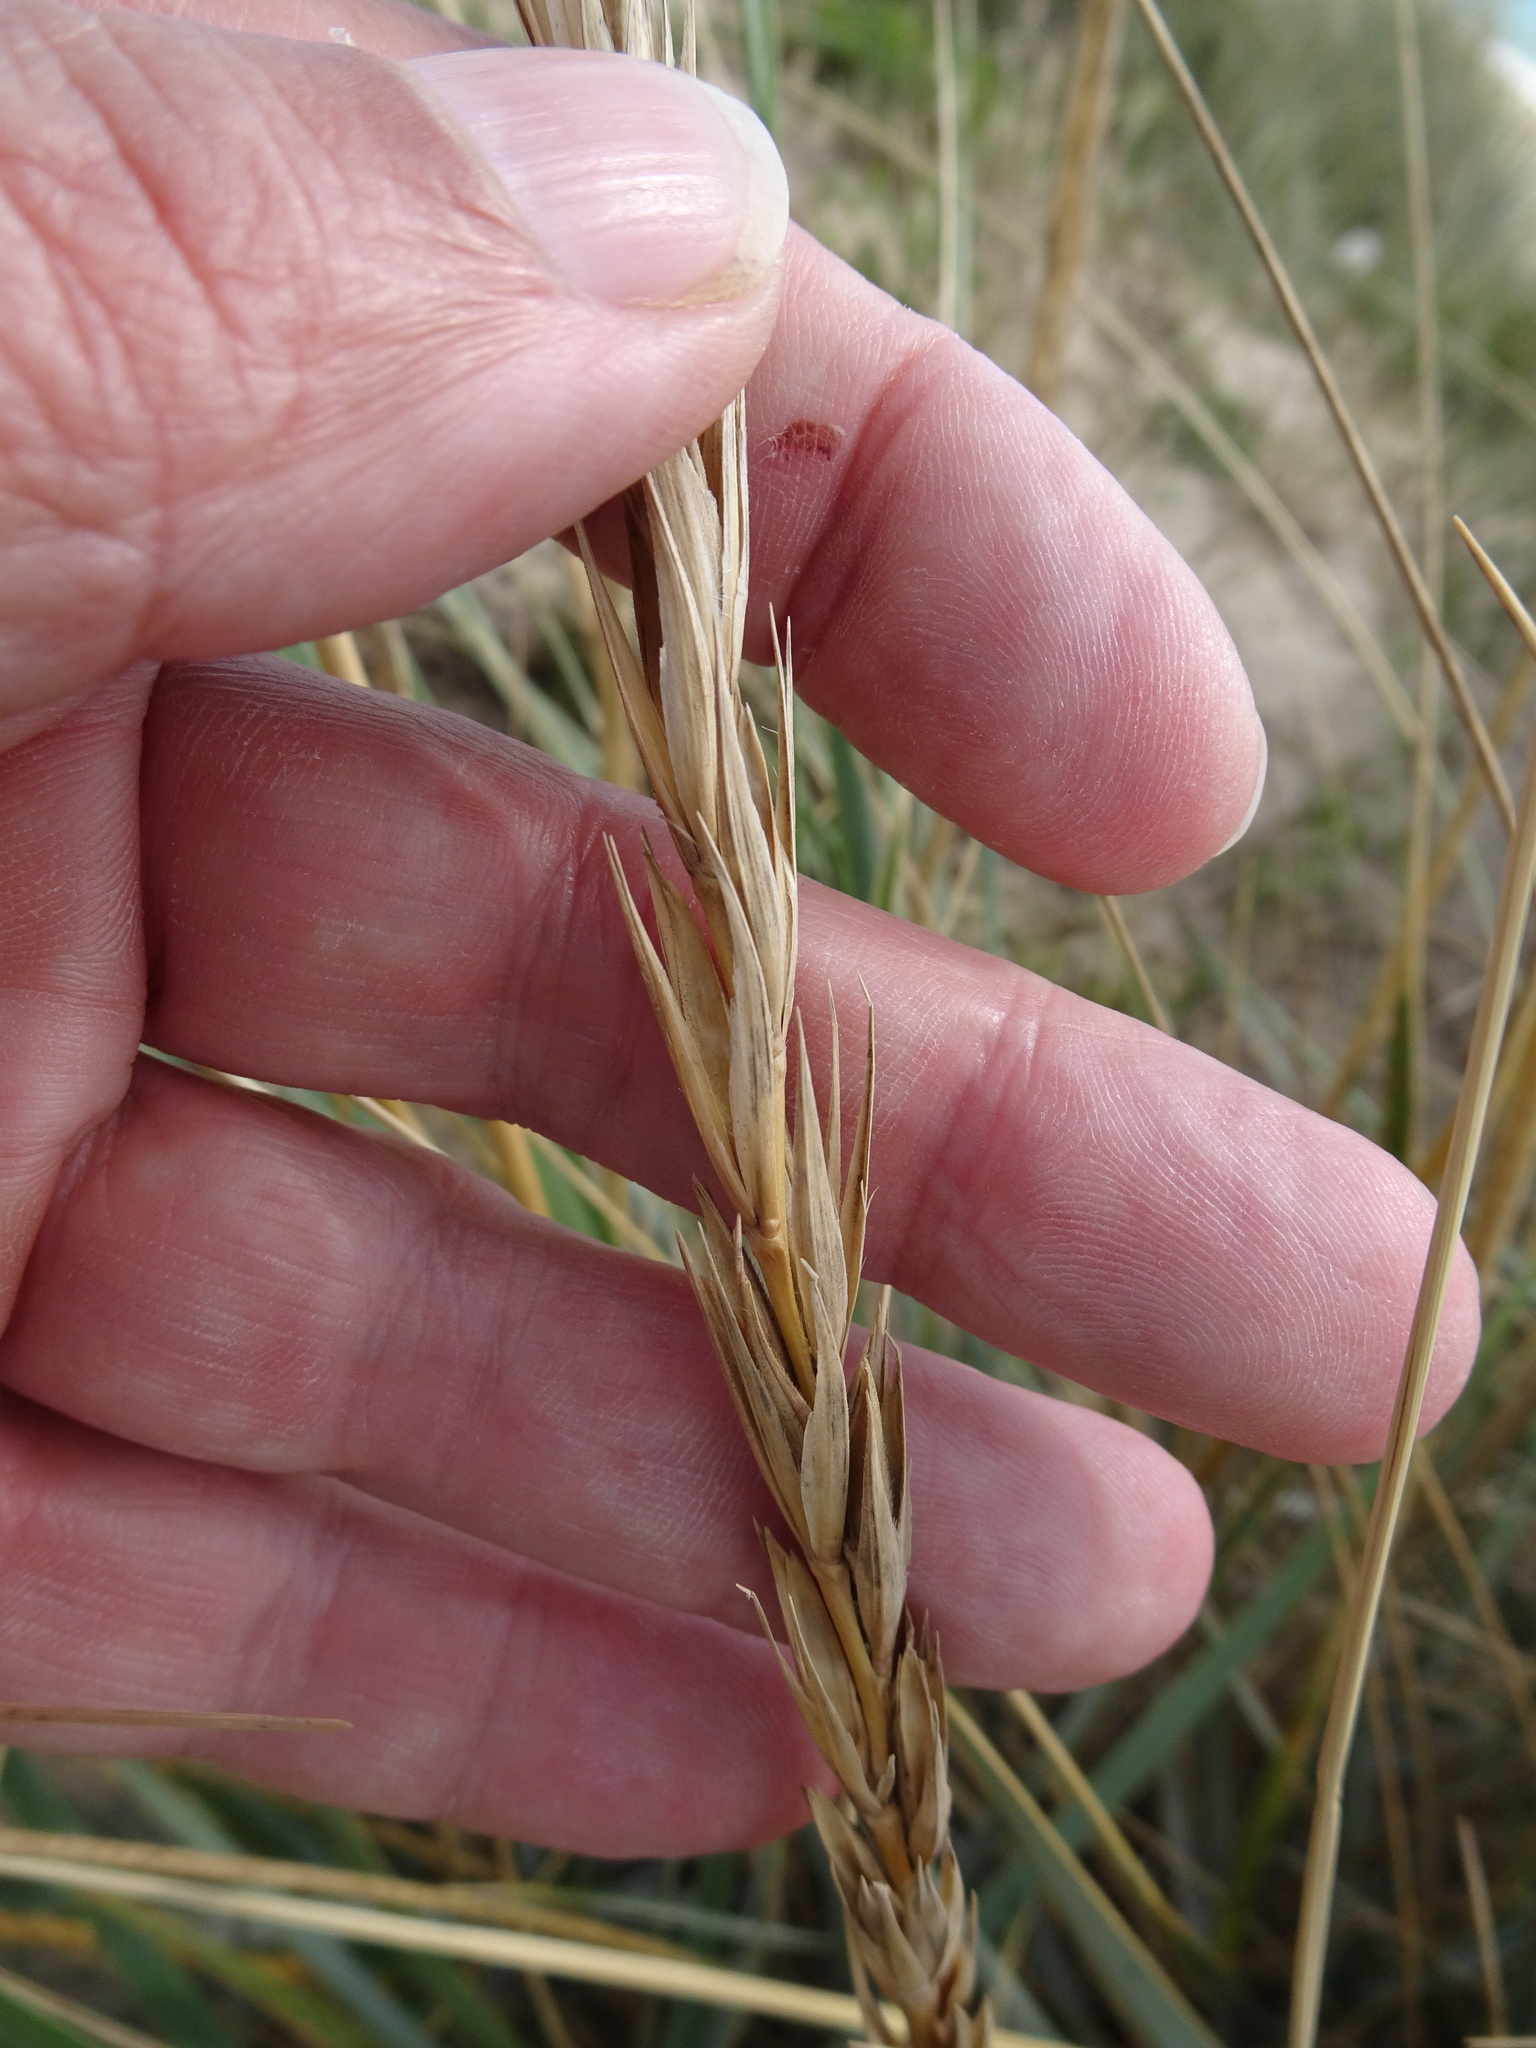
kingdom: Plantae
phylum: Tracheophyta
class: Liliopsida
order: Poales
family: Poaceae
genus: Leymus
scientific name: Leymus arenarius
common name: Lyme-grass
